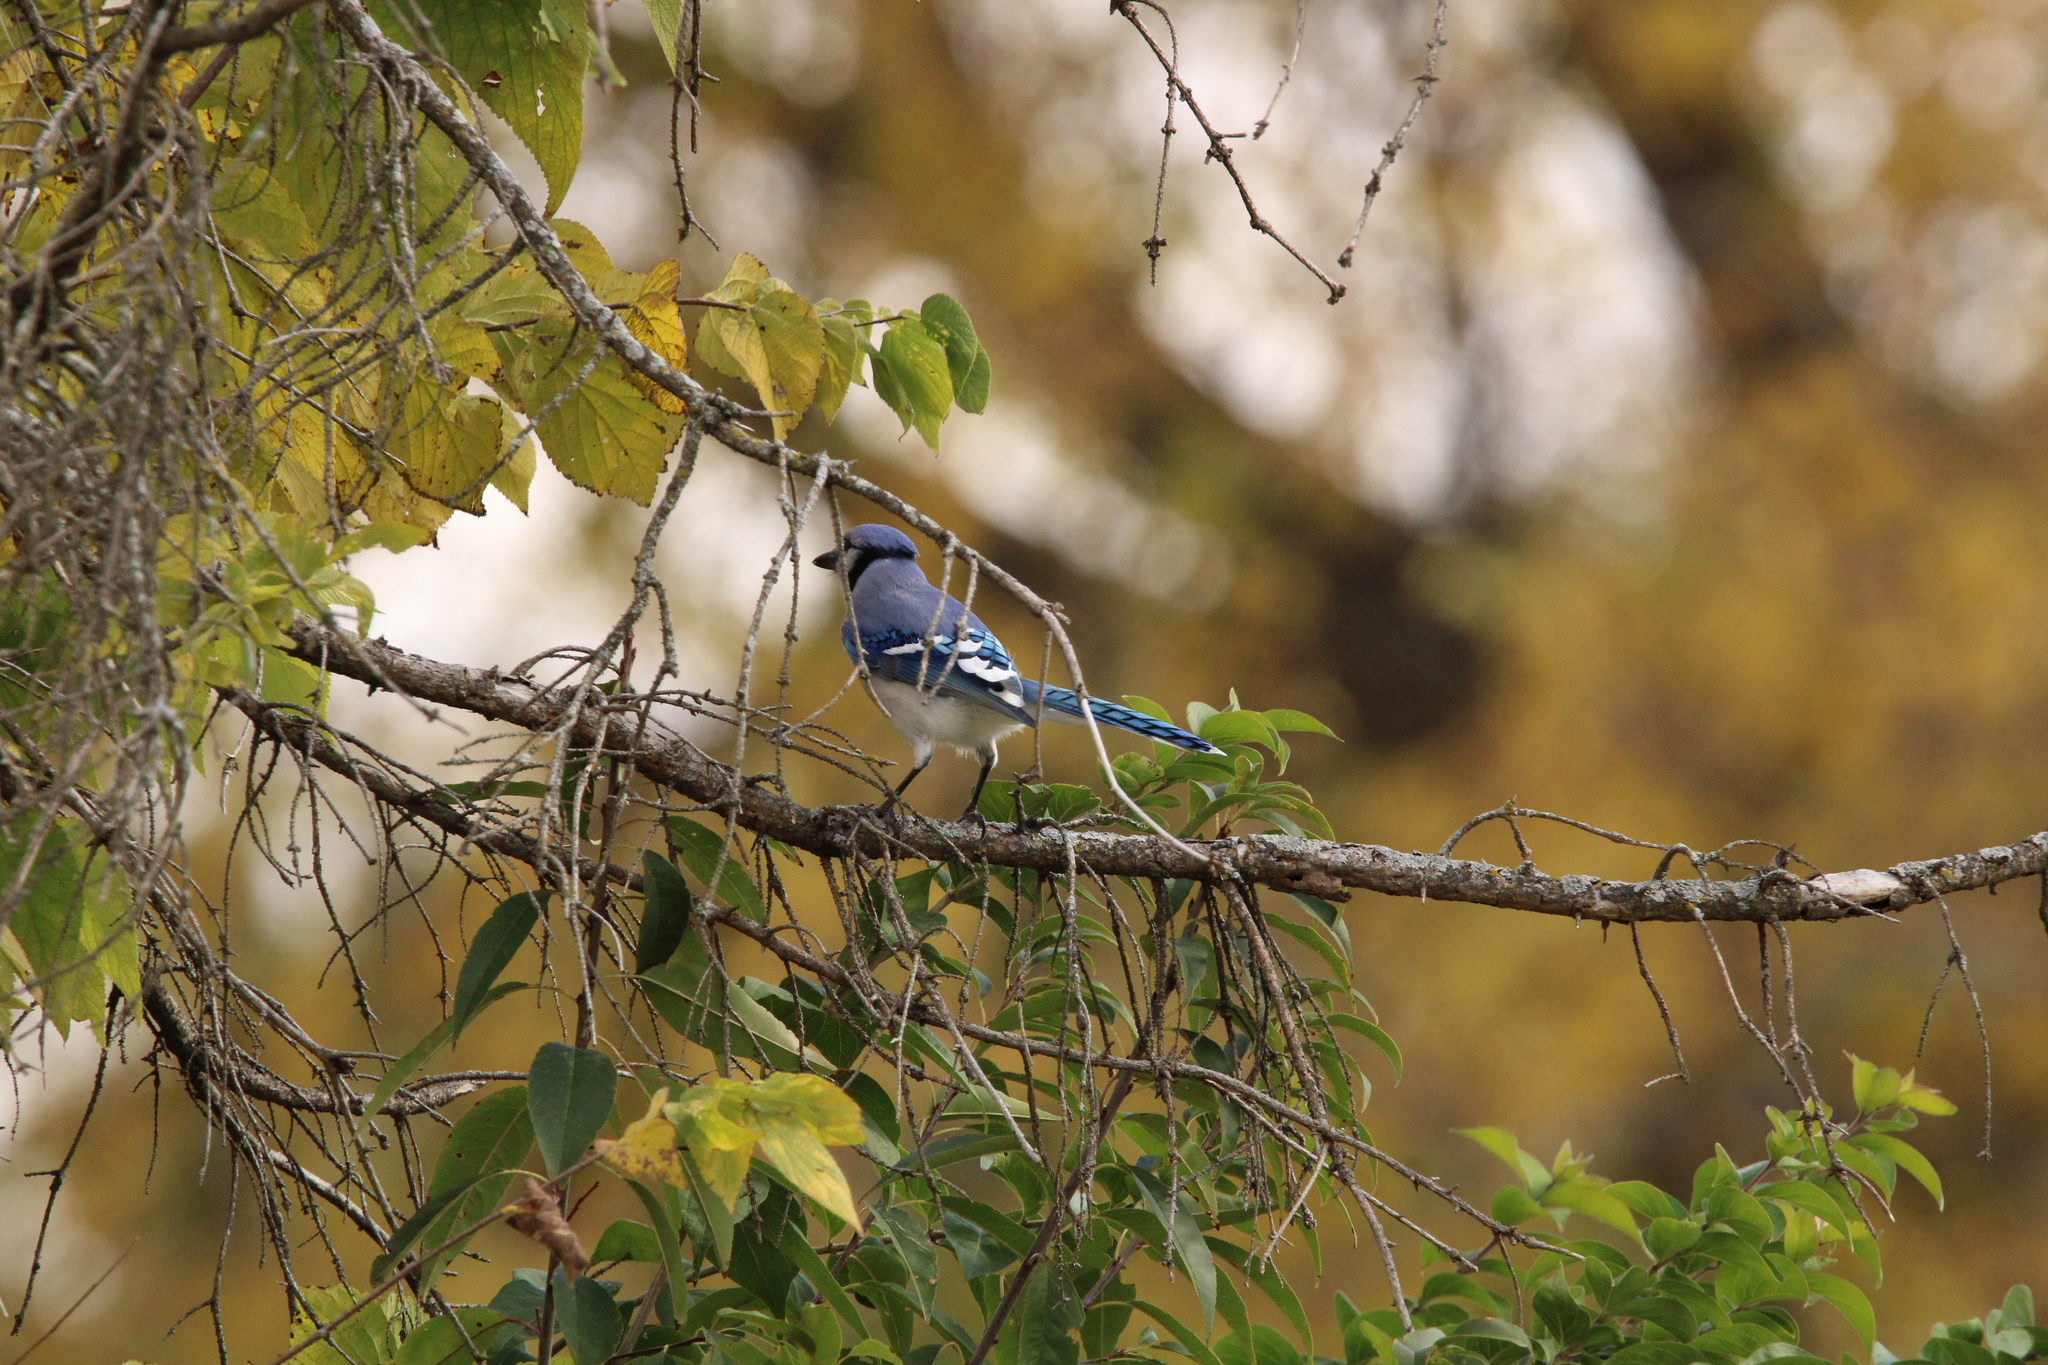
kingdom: Animalia
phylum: Chordata
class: Aves
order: Passeriformes
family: Corvidae
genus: Cyanocitta
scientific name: Cyanocitta cristata
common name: Blue jay
